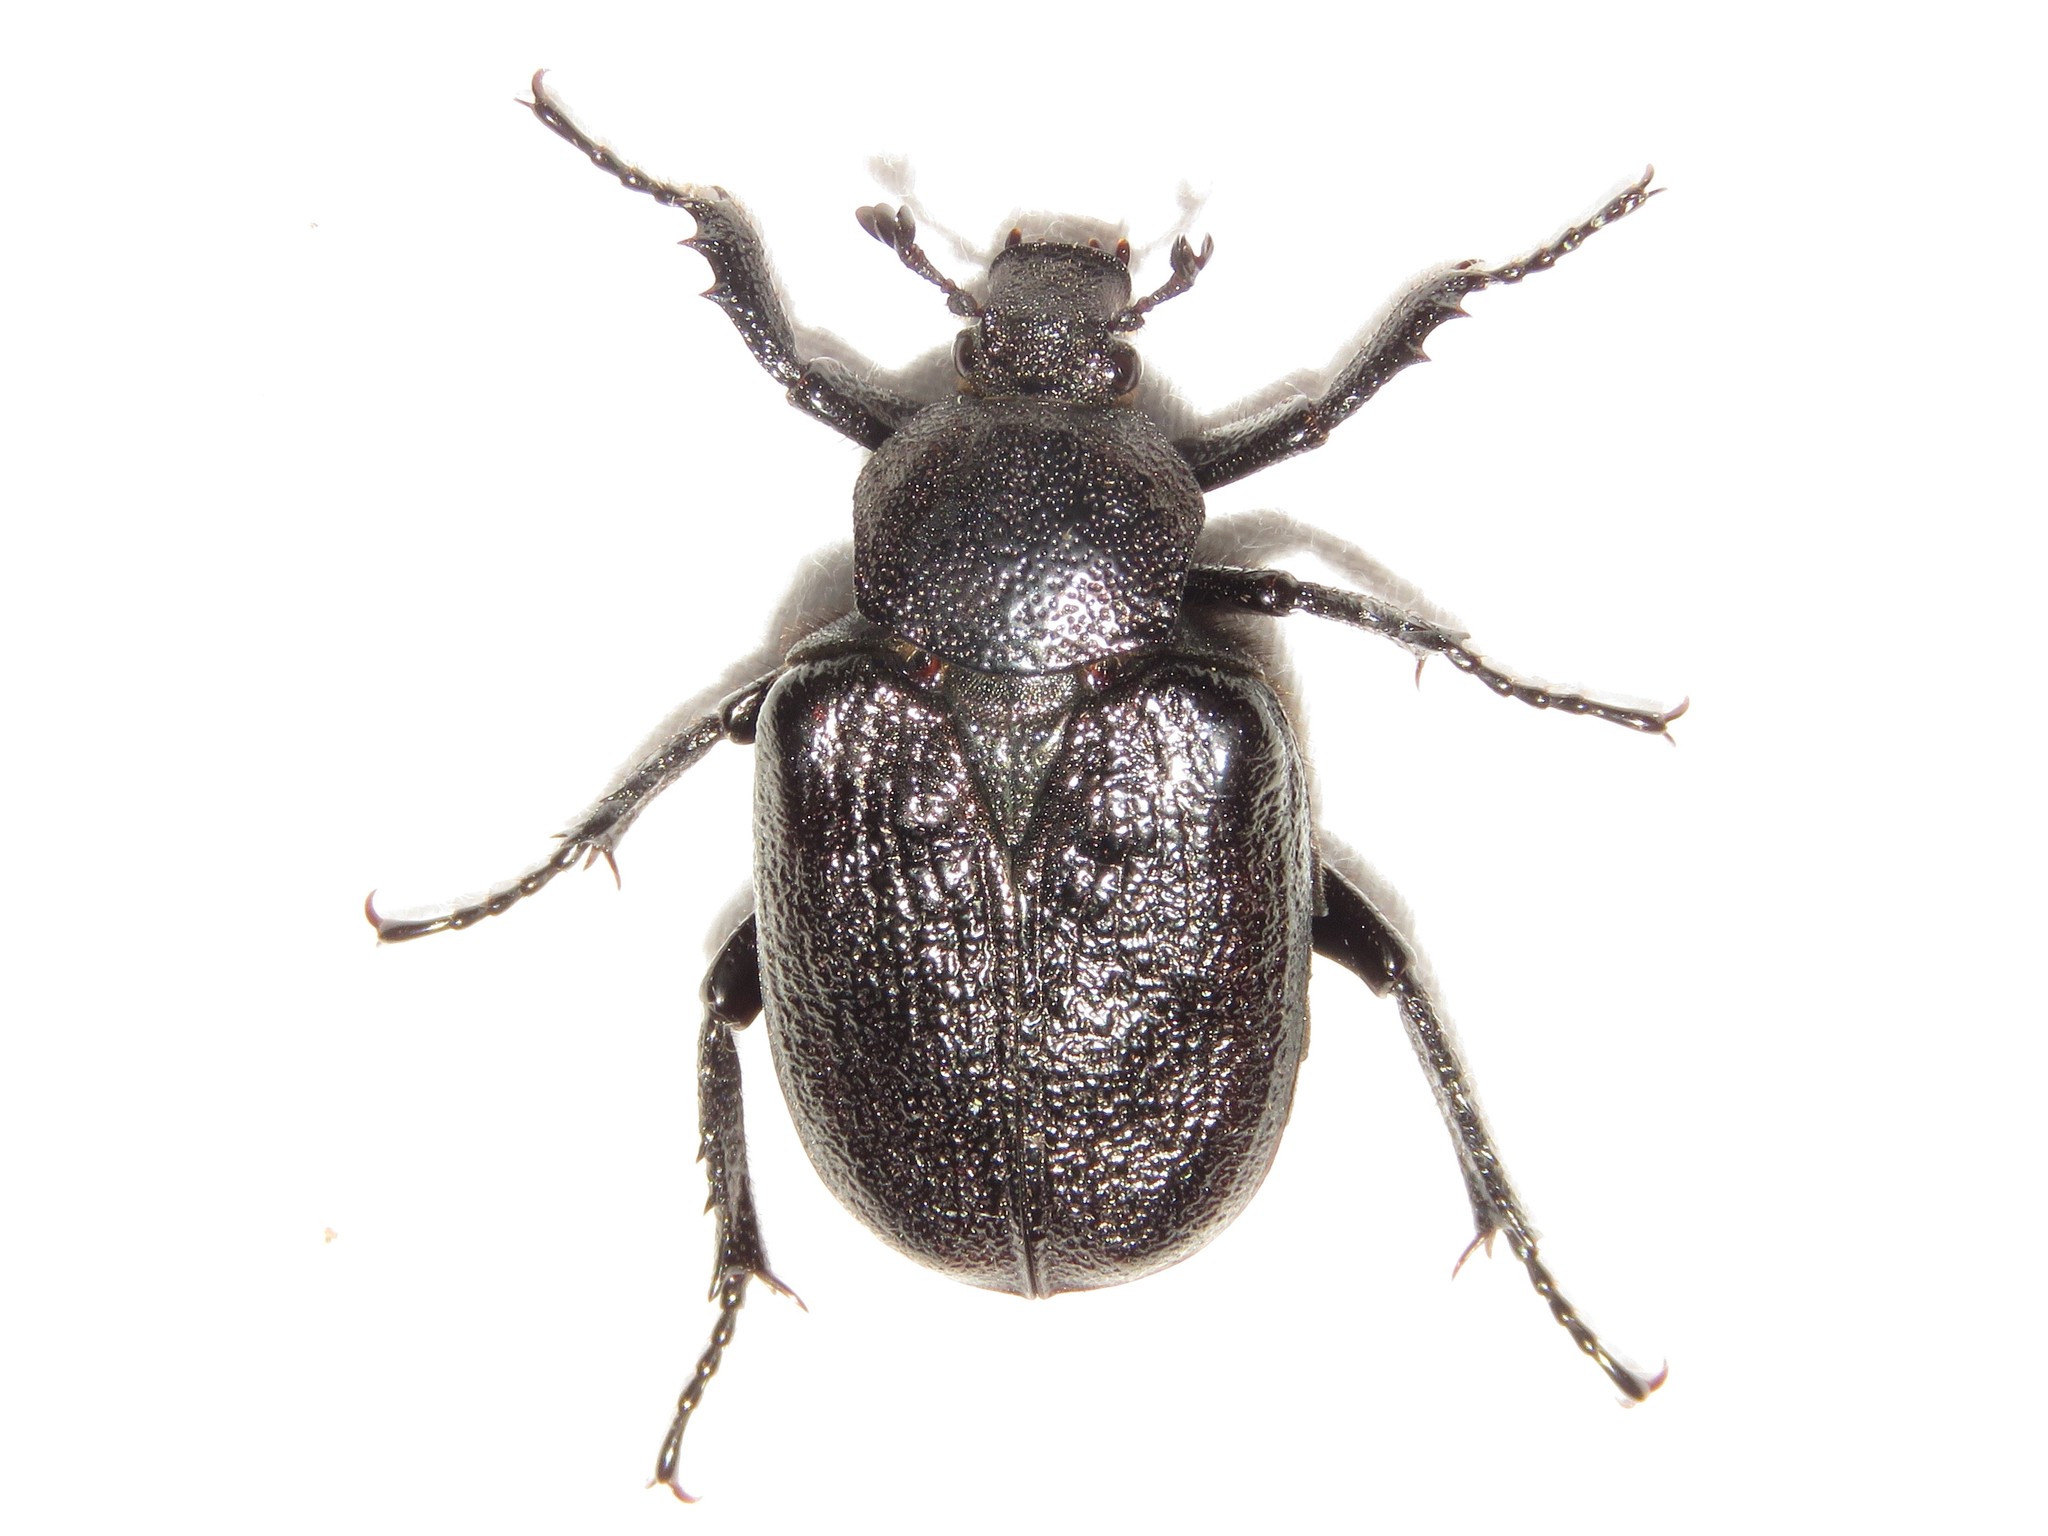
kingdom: Animalia
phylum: Arthropoda
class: Insecta
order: Coleoptera
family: Scarabaeidae
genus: Osmoderma
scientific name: Osmoderma scabra
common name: Rough hermit beetle
